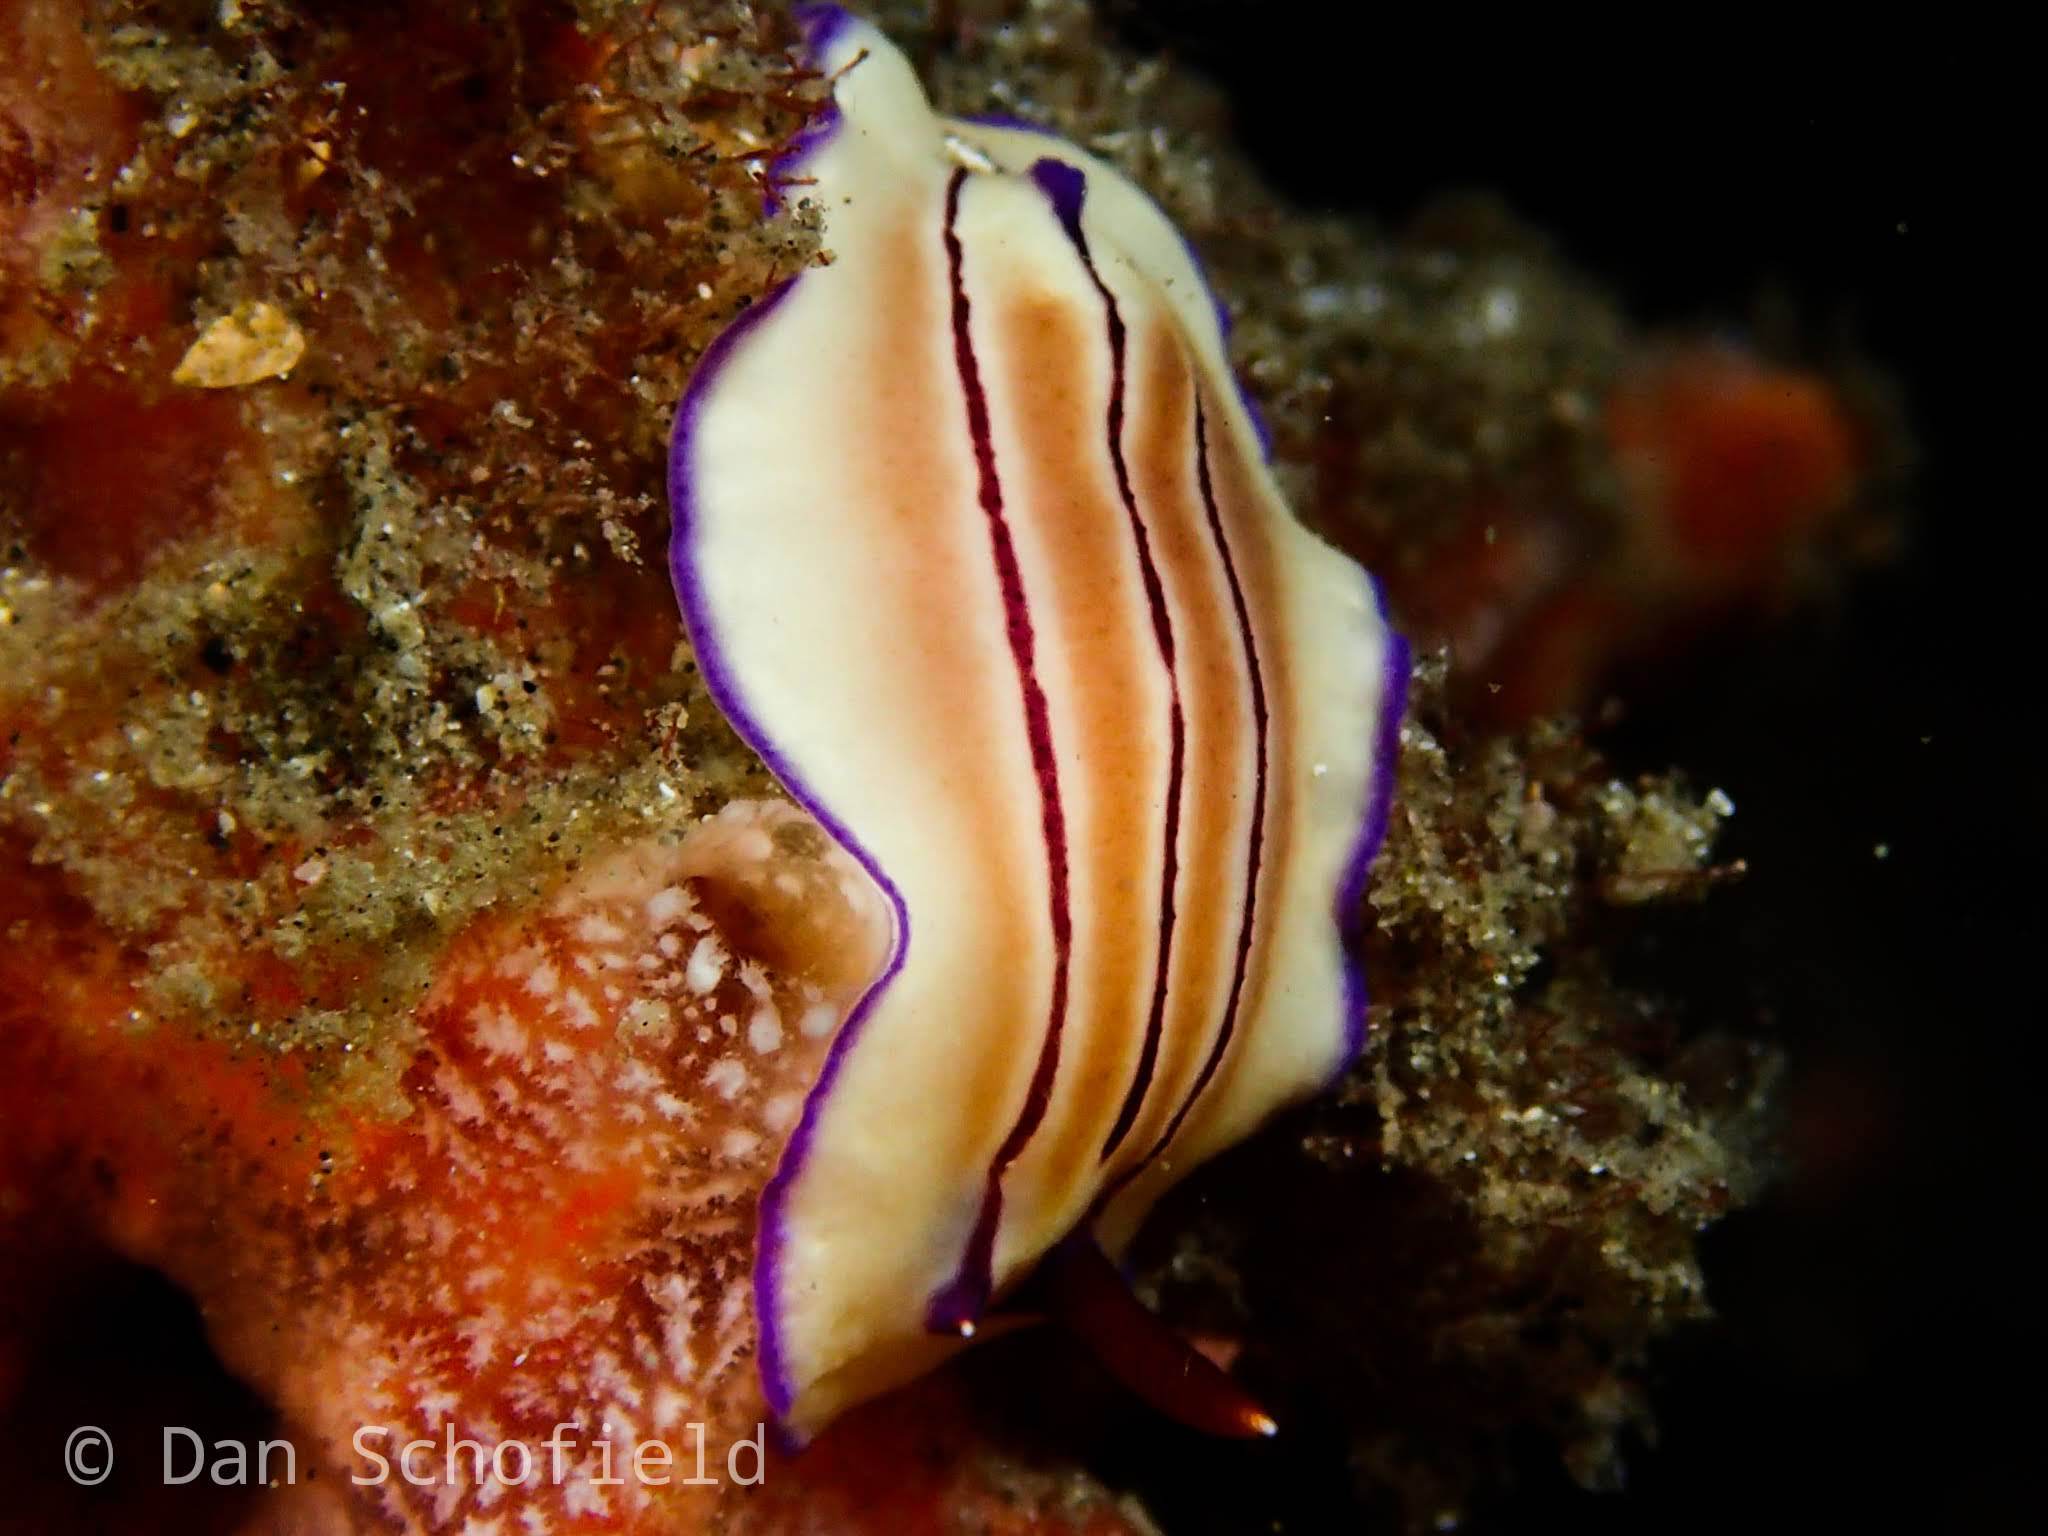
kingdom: Animalia
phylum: Mollusca
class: Gastropoda
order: Nudibranchia
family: Chromodorididae
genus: Hypselodoris
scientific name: Hypselodoris emma
